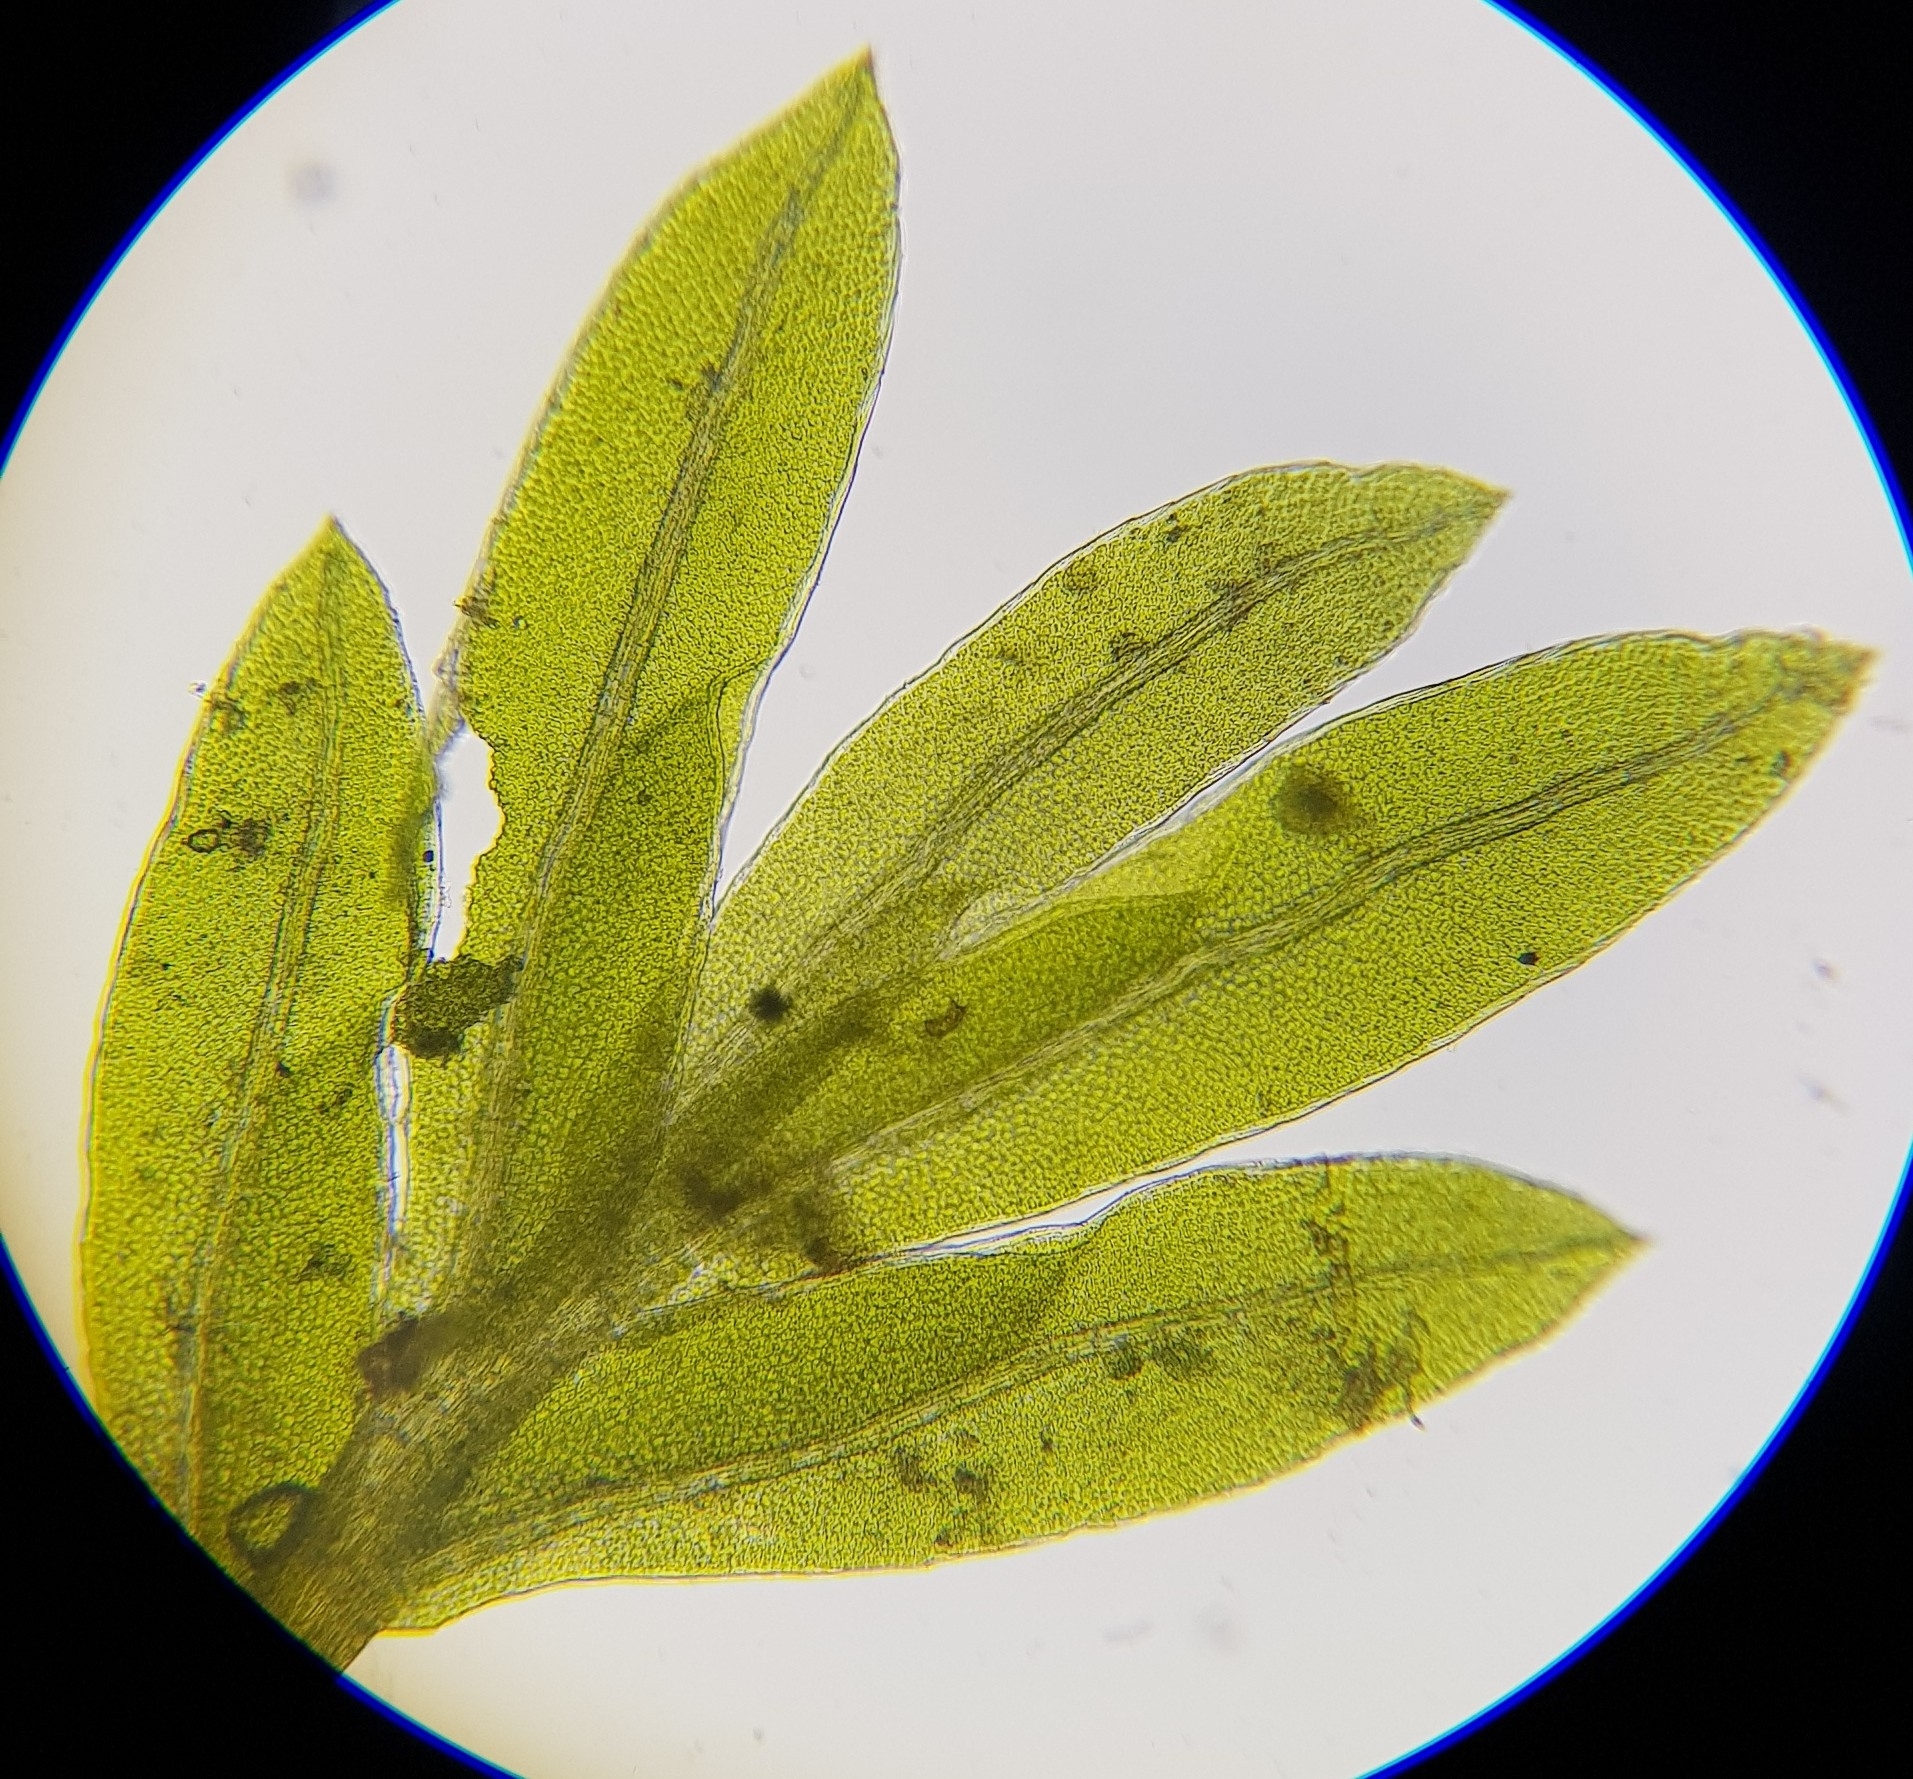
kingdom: Plantae
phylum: Bryophyta
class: Bryopsida
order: Dicranales
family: Fissidentaceae
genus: Fissidens
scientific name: Fissidens pusillus
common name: Petty pocket-moss
